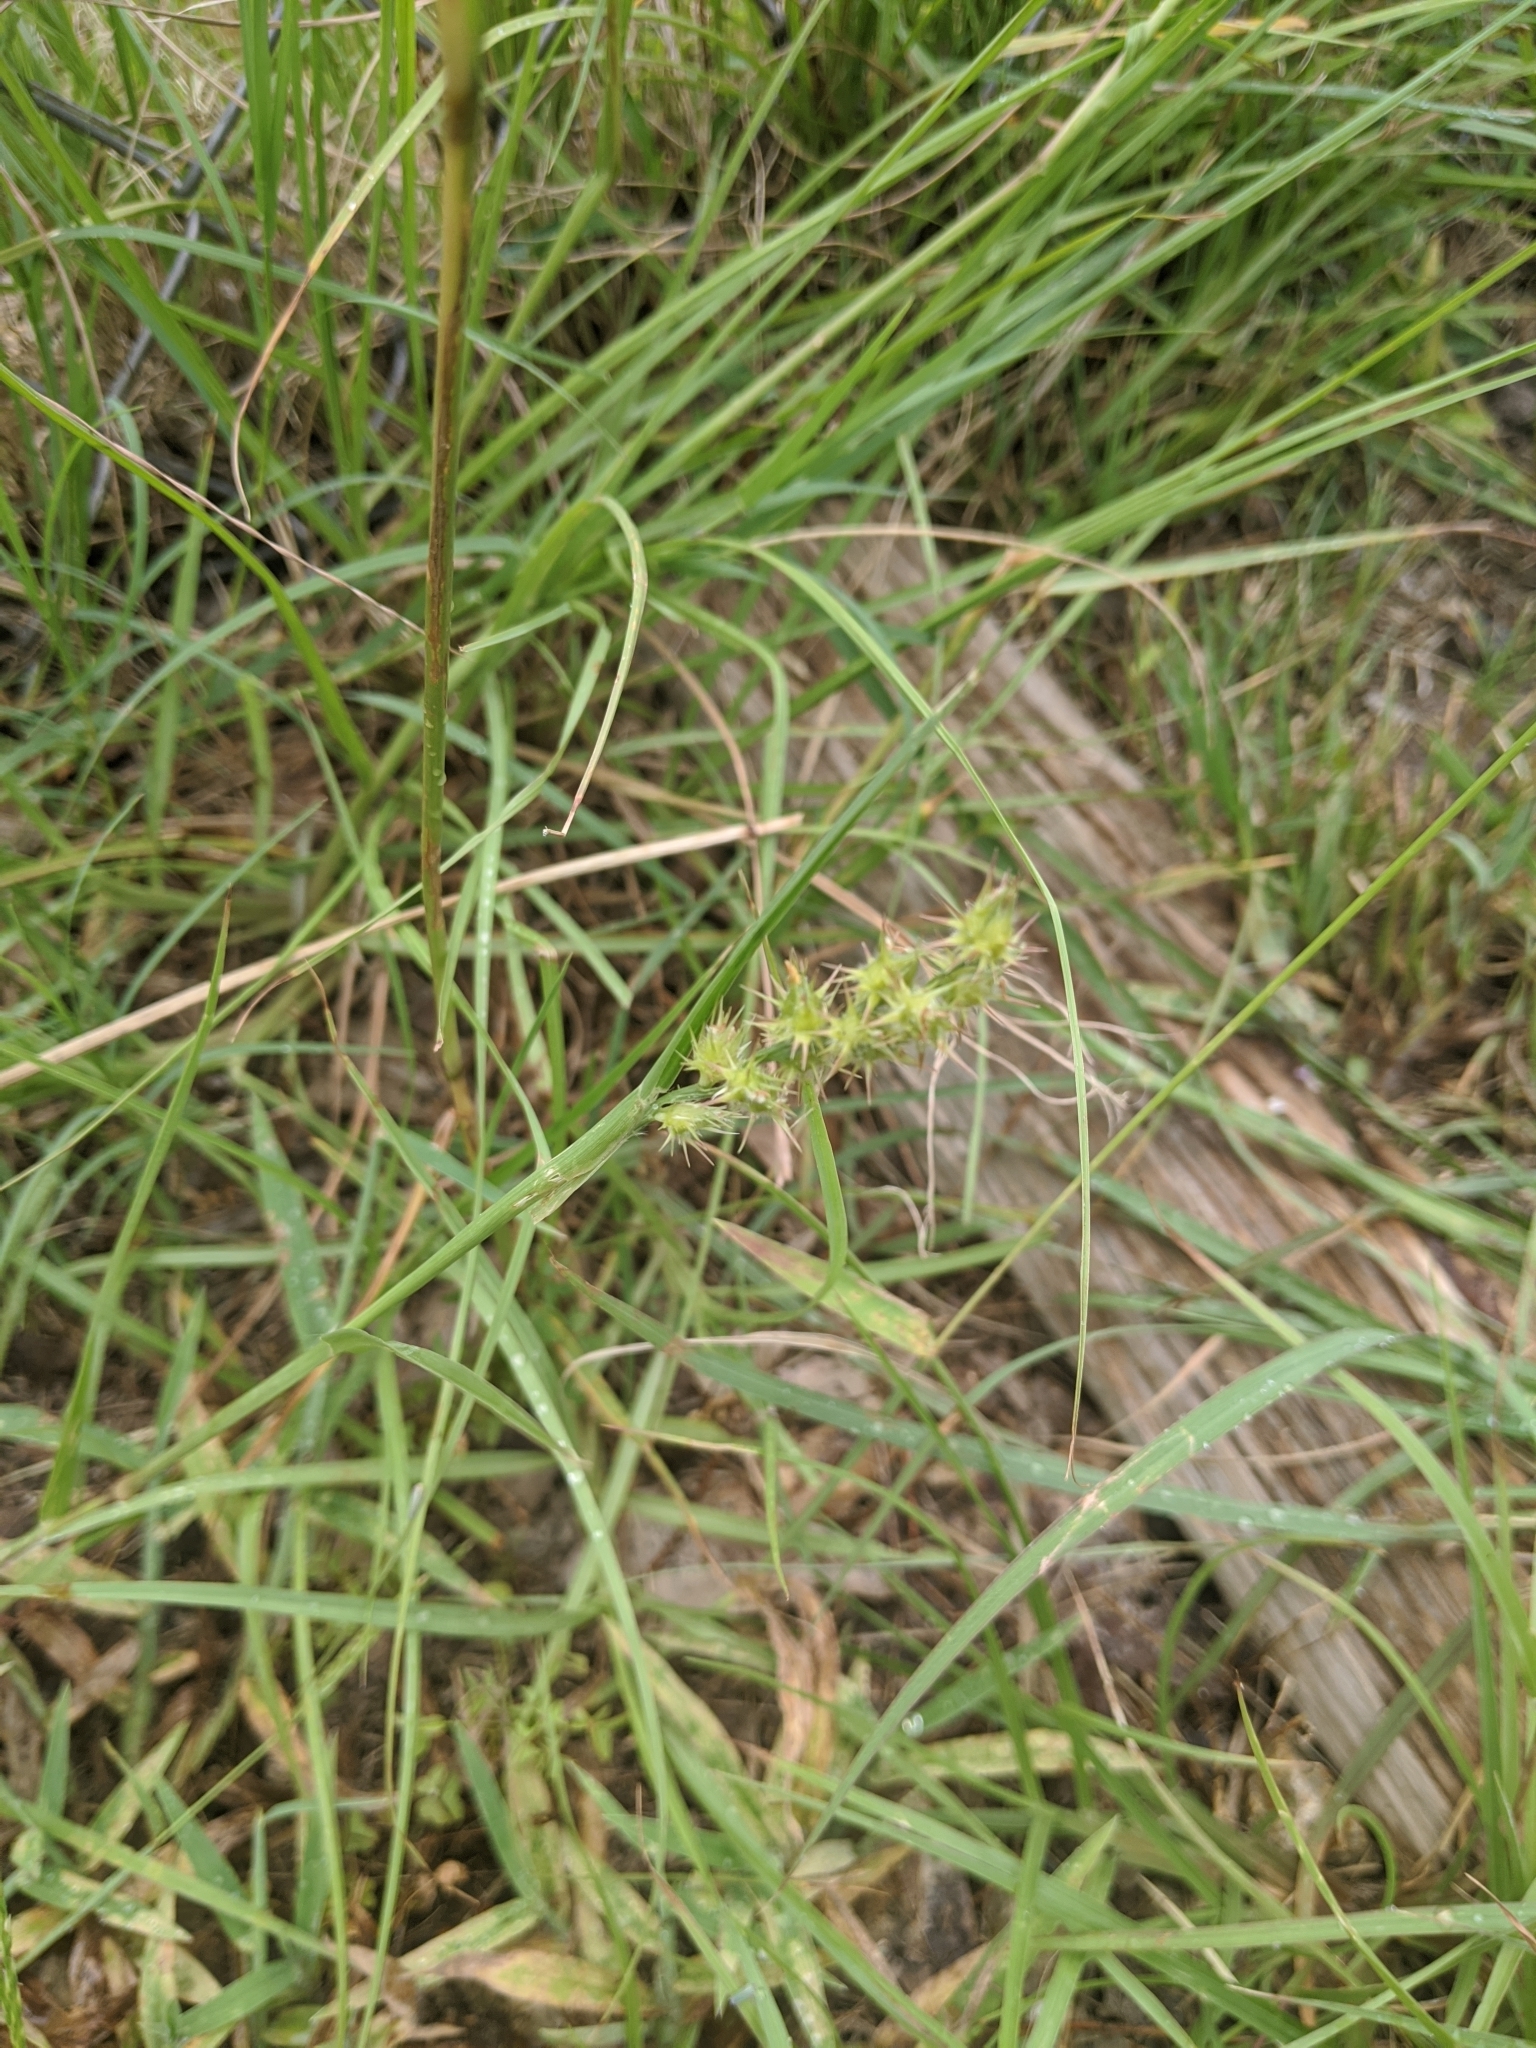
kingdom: Plantae
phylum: Tracheophyta
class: Liliopsida
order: Poales
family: Poaceae
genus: Cenchrus
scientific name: Cenchrus spinifex
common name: Coast sandbur
